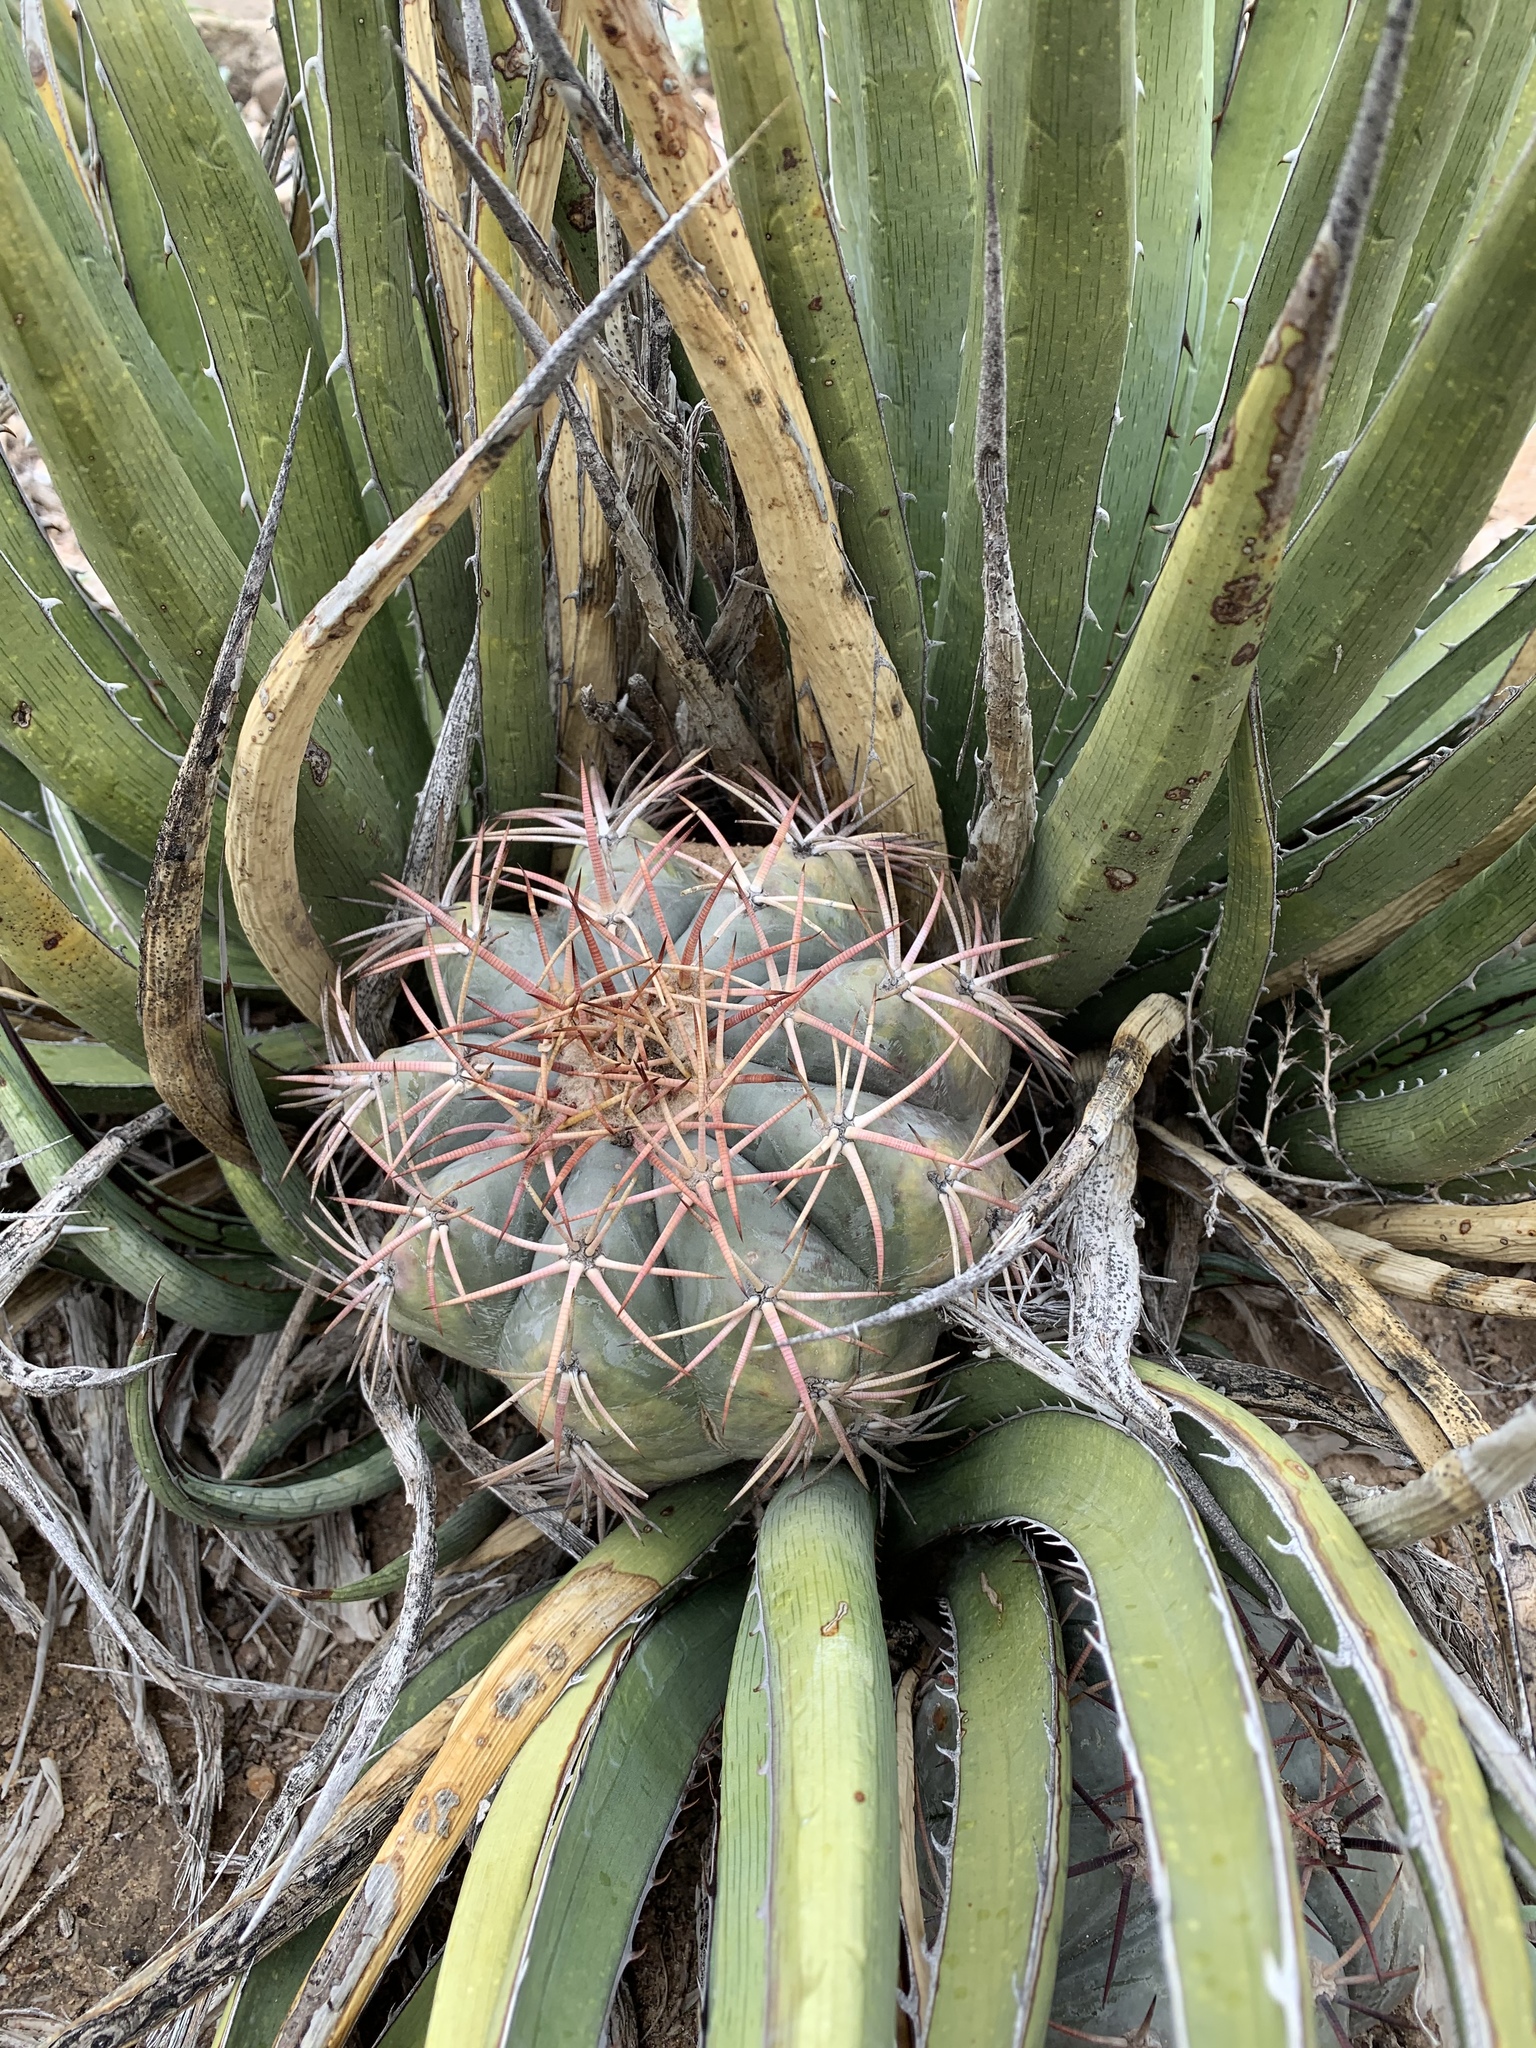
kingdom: Plantae
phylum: Tracheophyta
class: Magnoliopsida
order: Caryophyllales
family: Cactaceae
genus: Echinocactus
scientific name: Echinocactus horizonthalonius
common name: Devilshead
